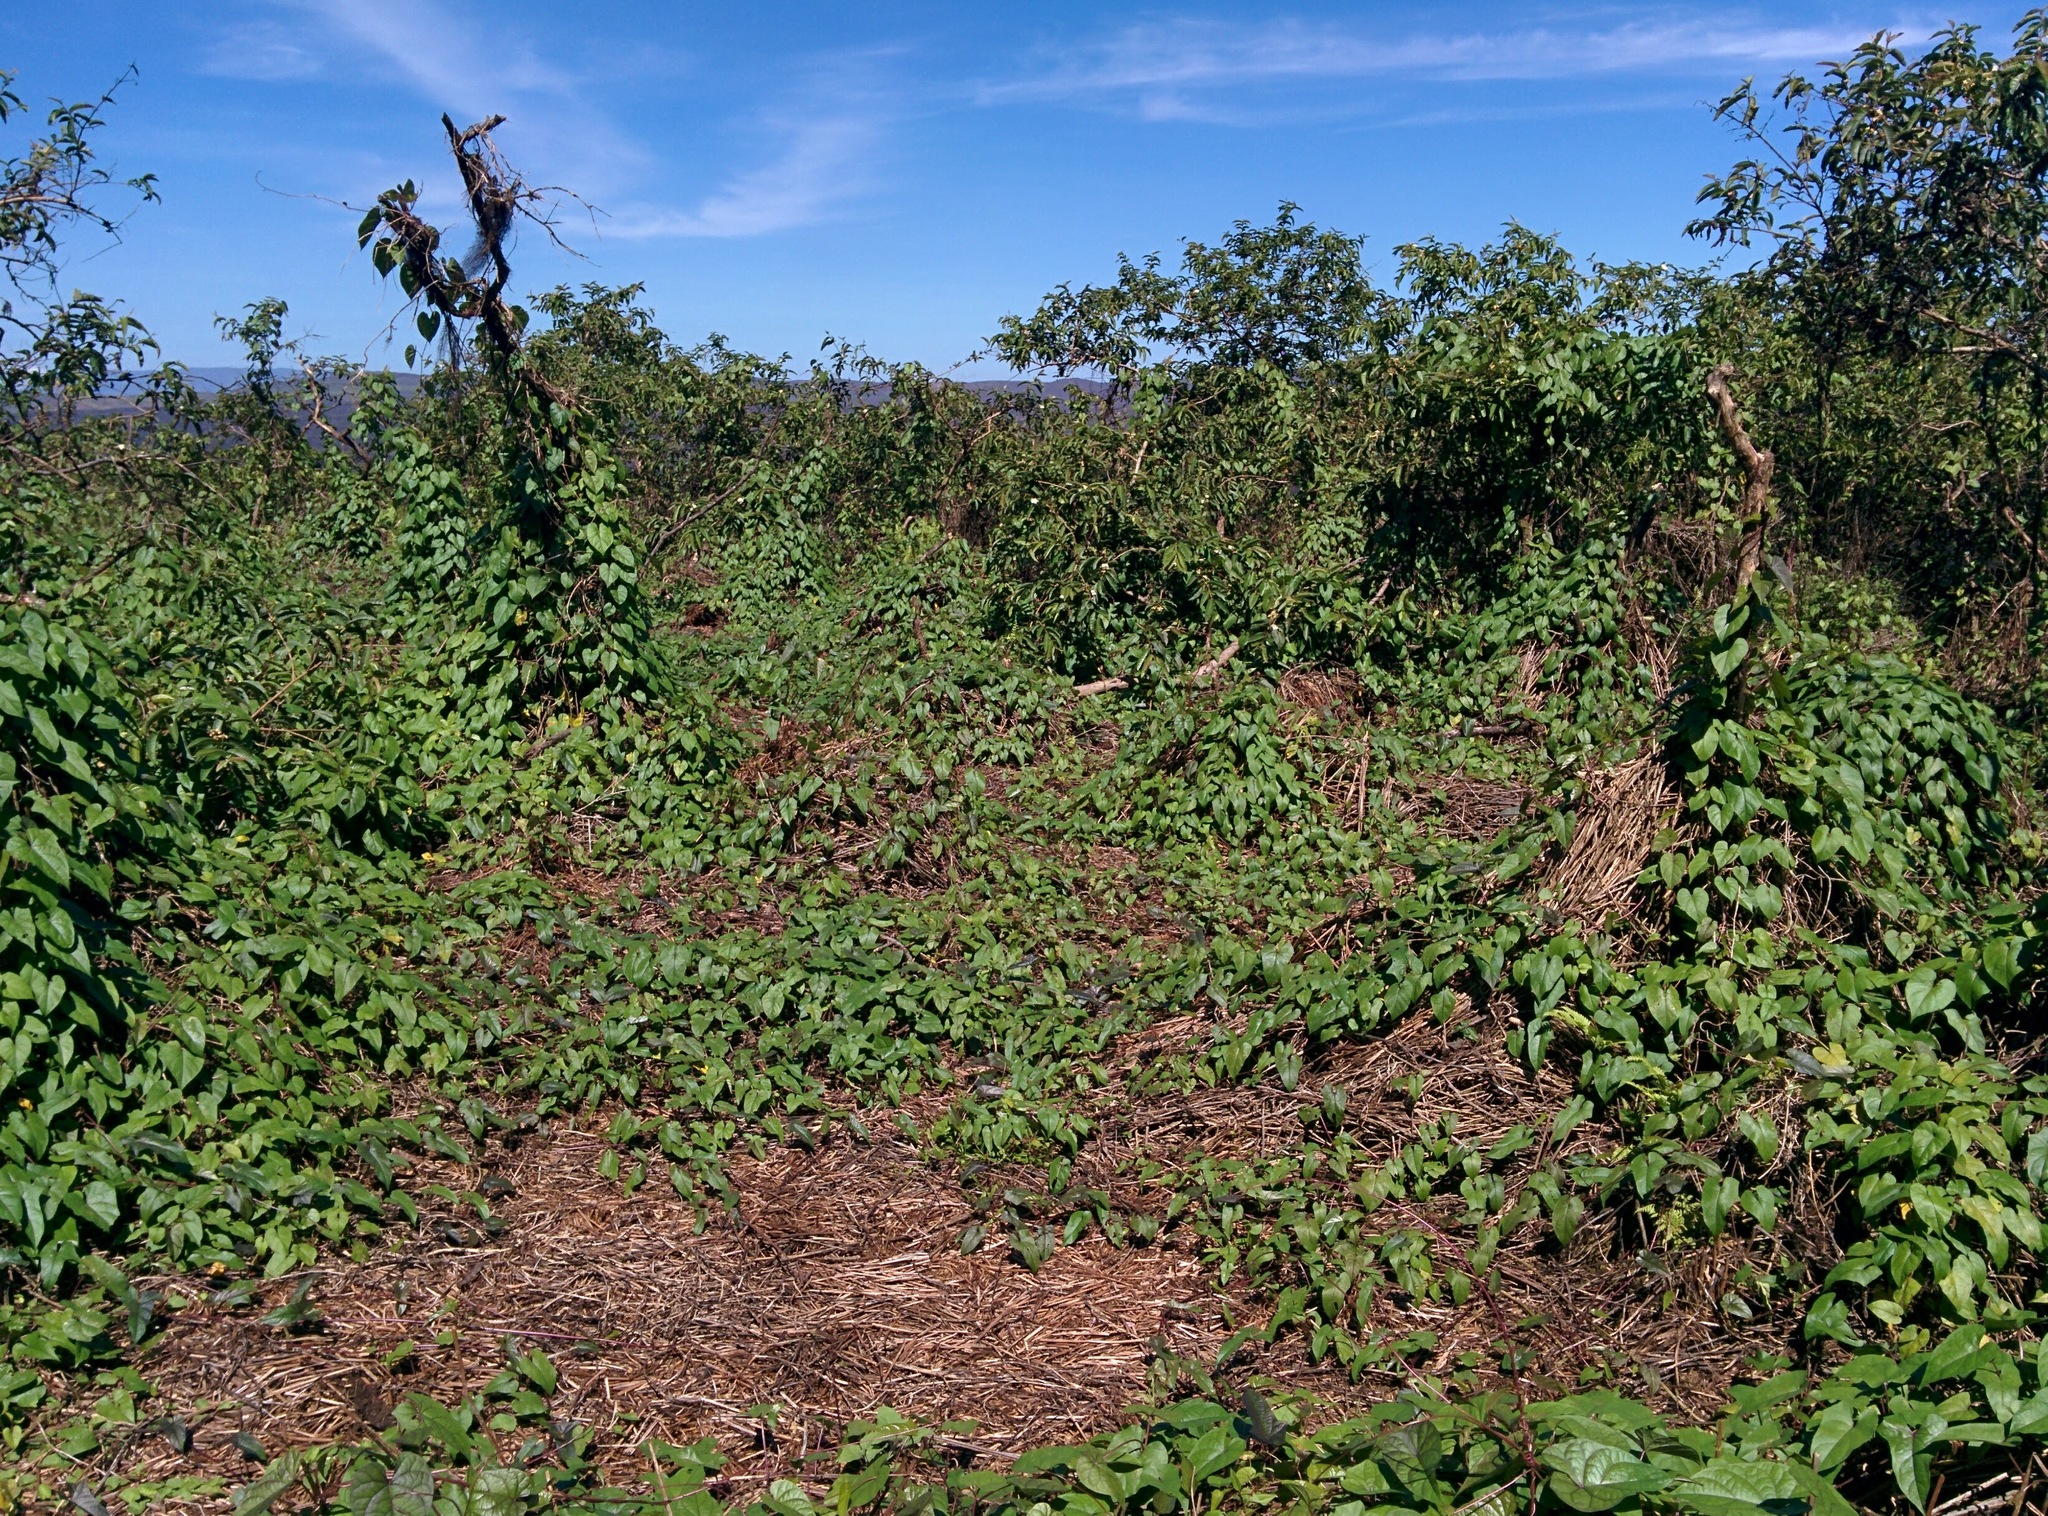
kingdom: Plantae
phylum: Tracheophyta
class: Magnoliopsida
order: Solanales
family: Convolvulaceae
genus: Ipomoea
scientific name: Ipomoea alba
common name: Moonflower
